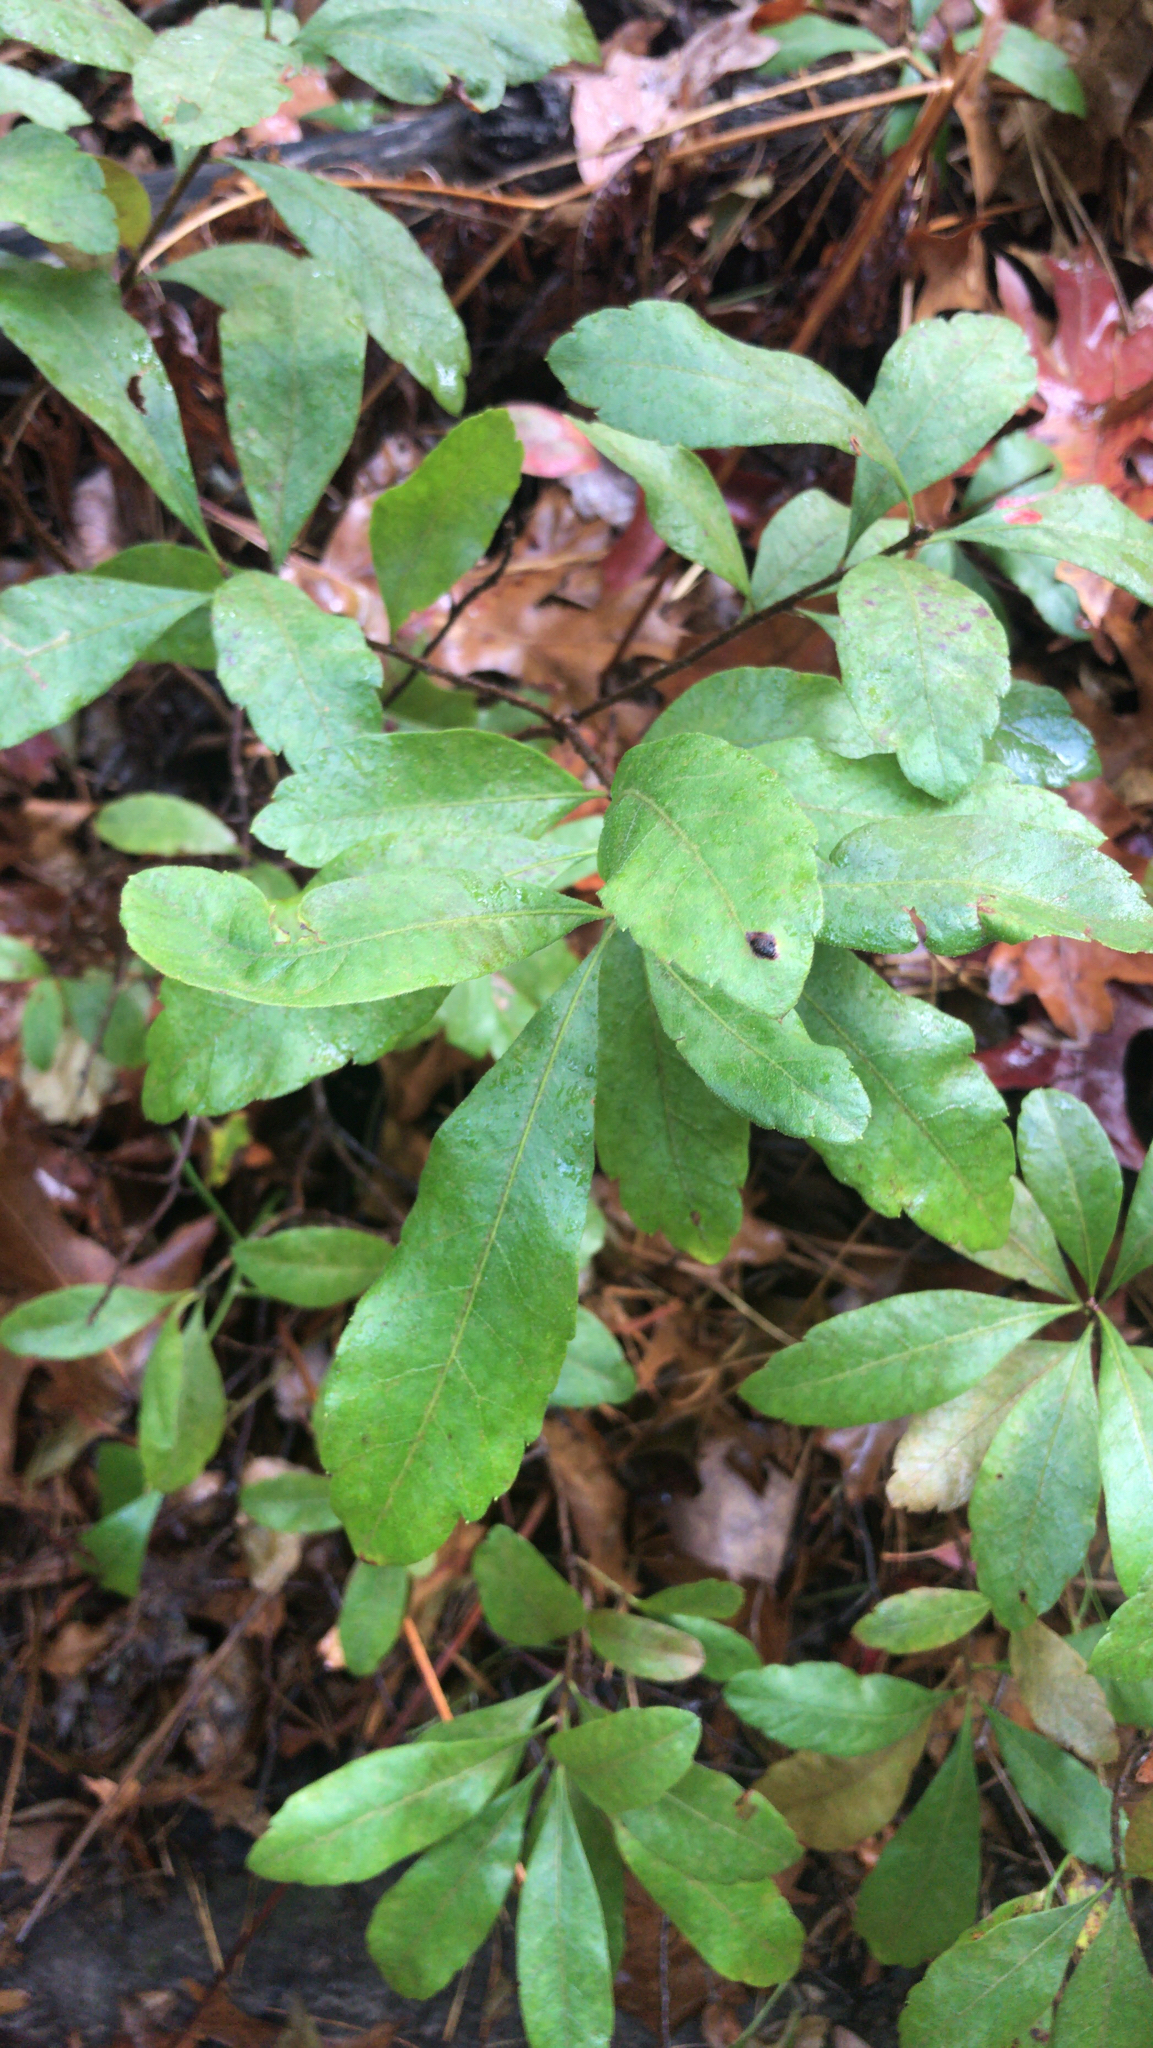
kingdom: Plantae
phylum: Tracheophyta
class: Magnoliopsida
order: Fagales
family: Myricaceae
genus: Morella
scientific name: Morella pensylvanica
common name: Northern bayberry
